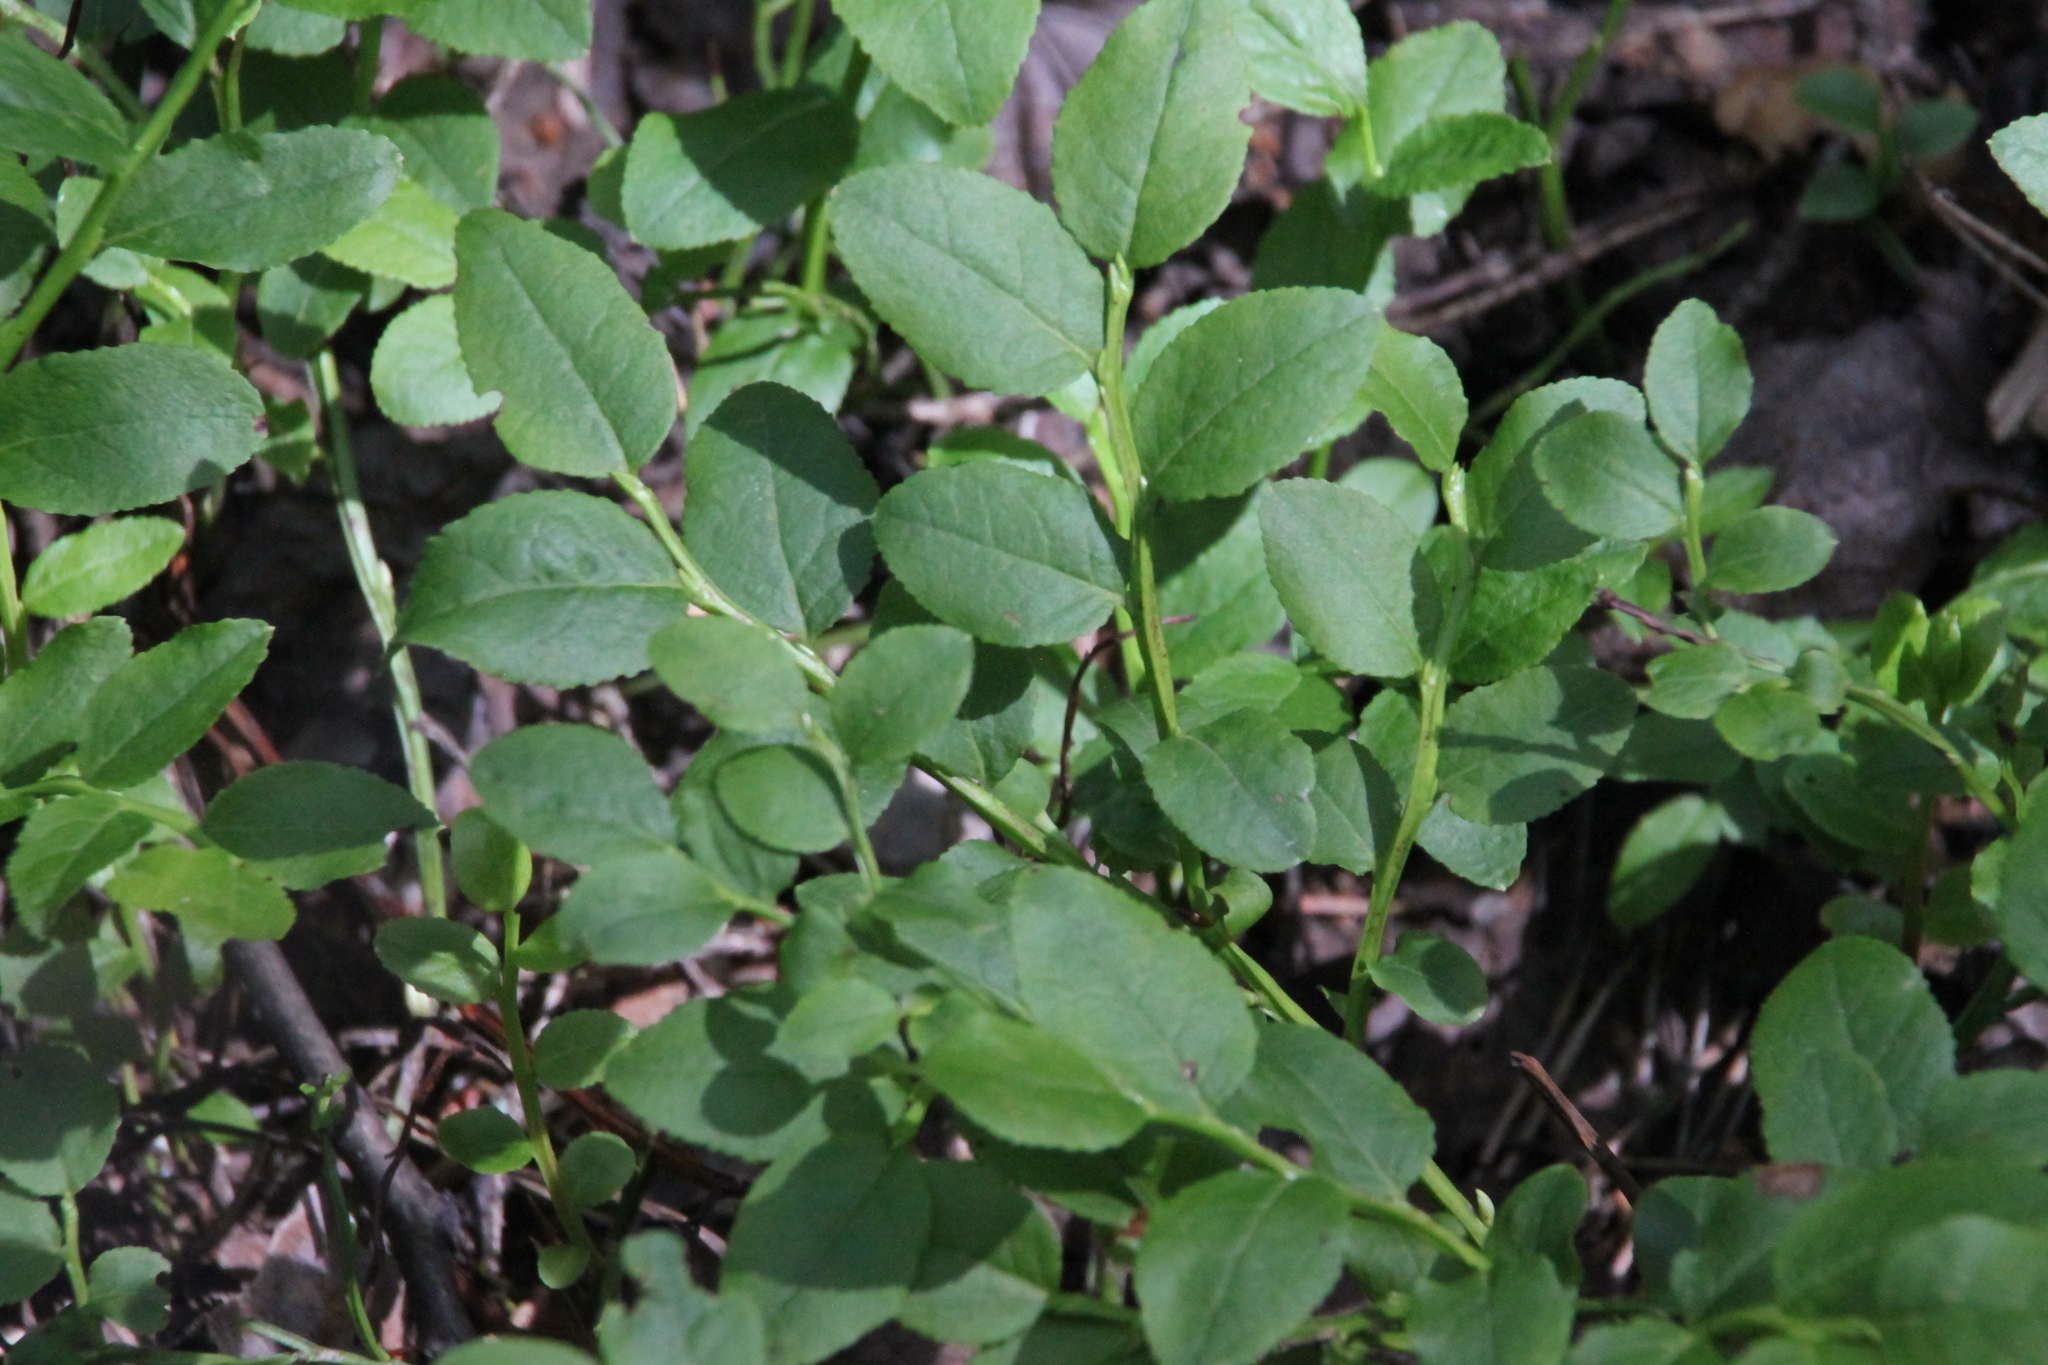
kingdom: Plantae
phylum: Tracheophyta
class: Magnoliopsida
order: Ericales
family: Ericaceae
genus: Vaccinium
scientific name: Vaccinium myrtillus
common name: Bilberry
